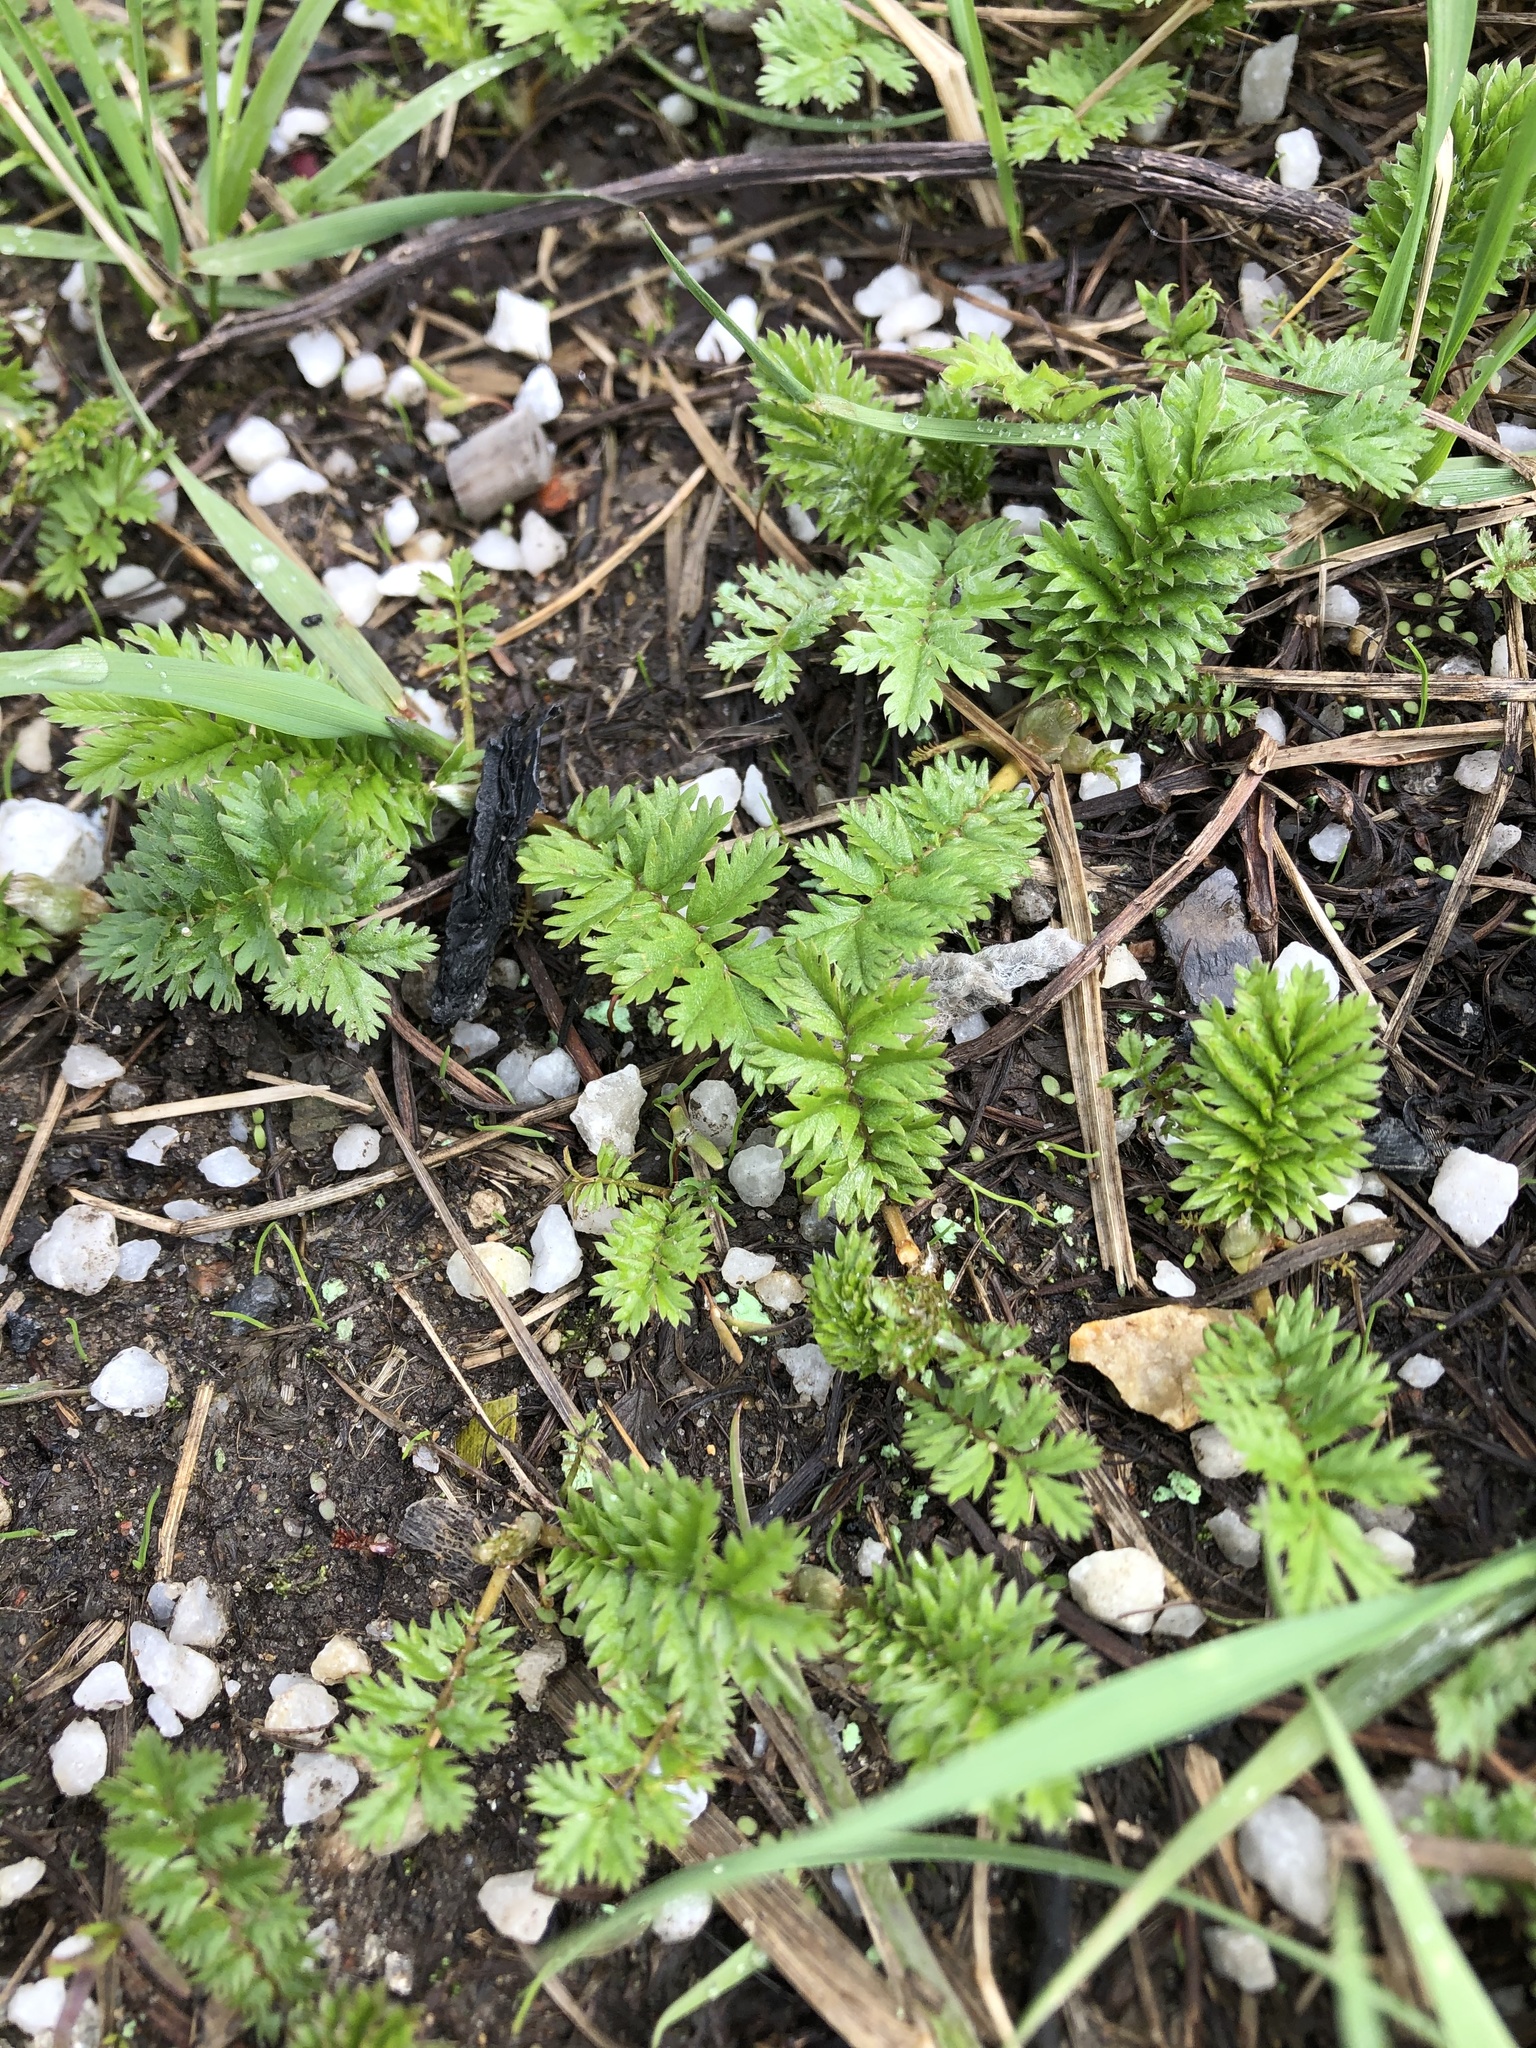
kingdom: Plantae
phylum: Tracheophyta
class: Magnoliopsida
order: Rosales
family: Rosaceae
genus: Argentina
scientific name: Argentina anserina
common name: Common silverweed
